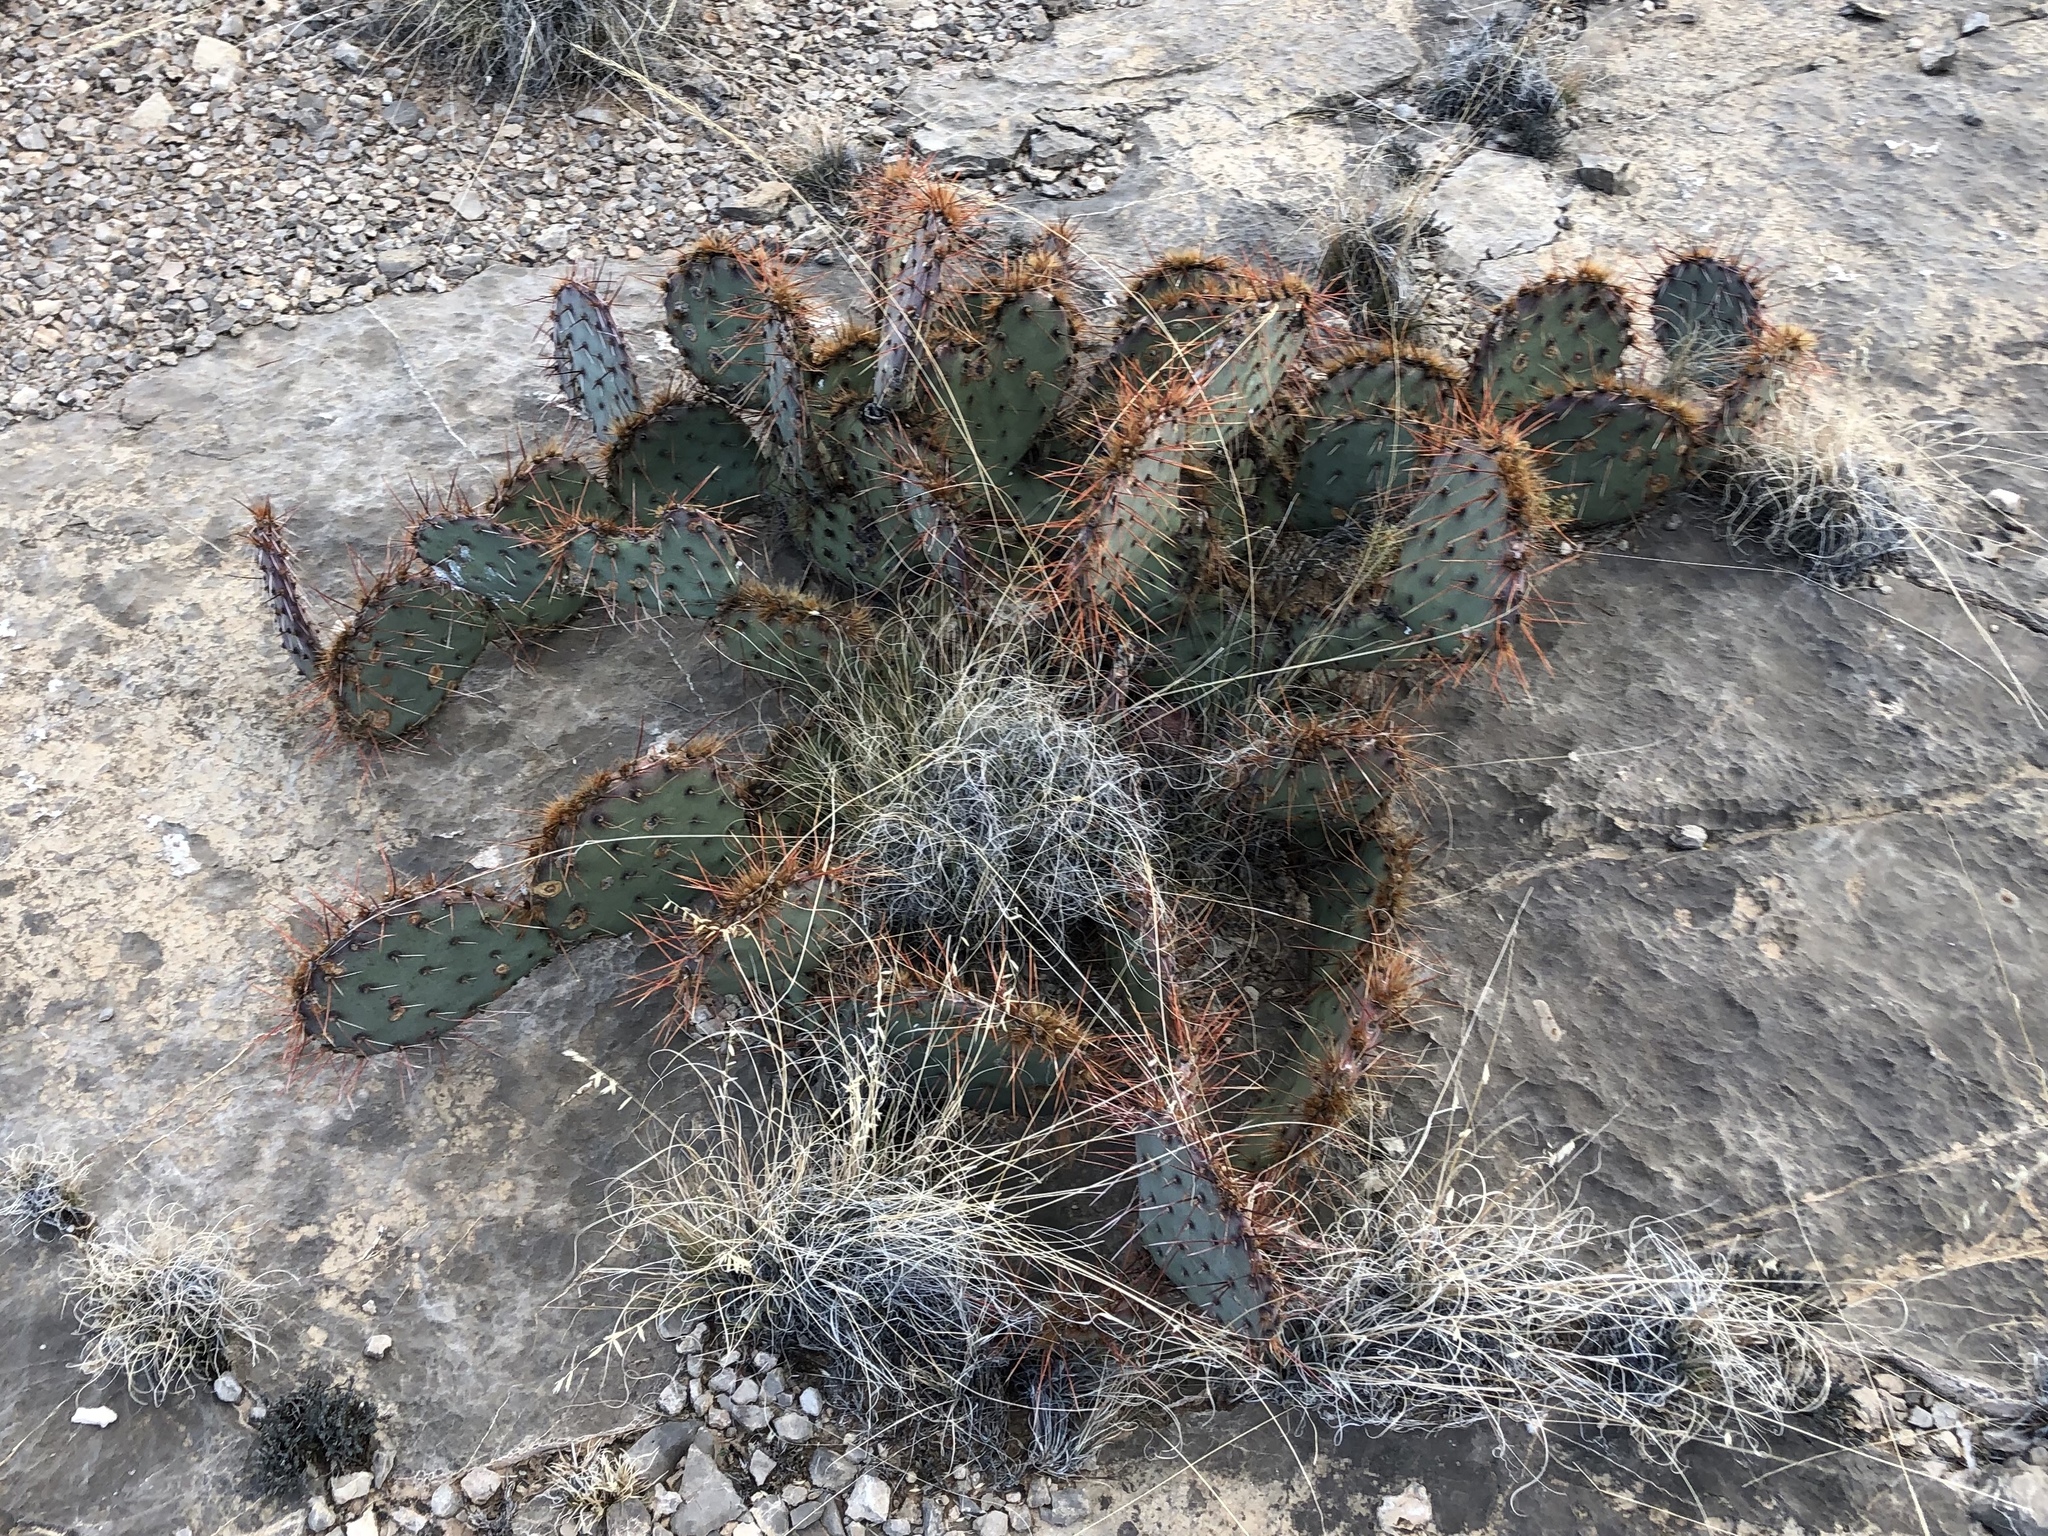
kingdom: Plantae
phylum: Tracheophyta
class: Magnoliopsida
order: Caryophyllales
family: Cactaceae
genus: Opuntia
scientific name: Opuntia phaeacantha
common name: New mexico prickly-pear
